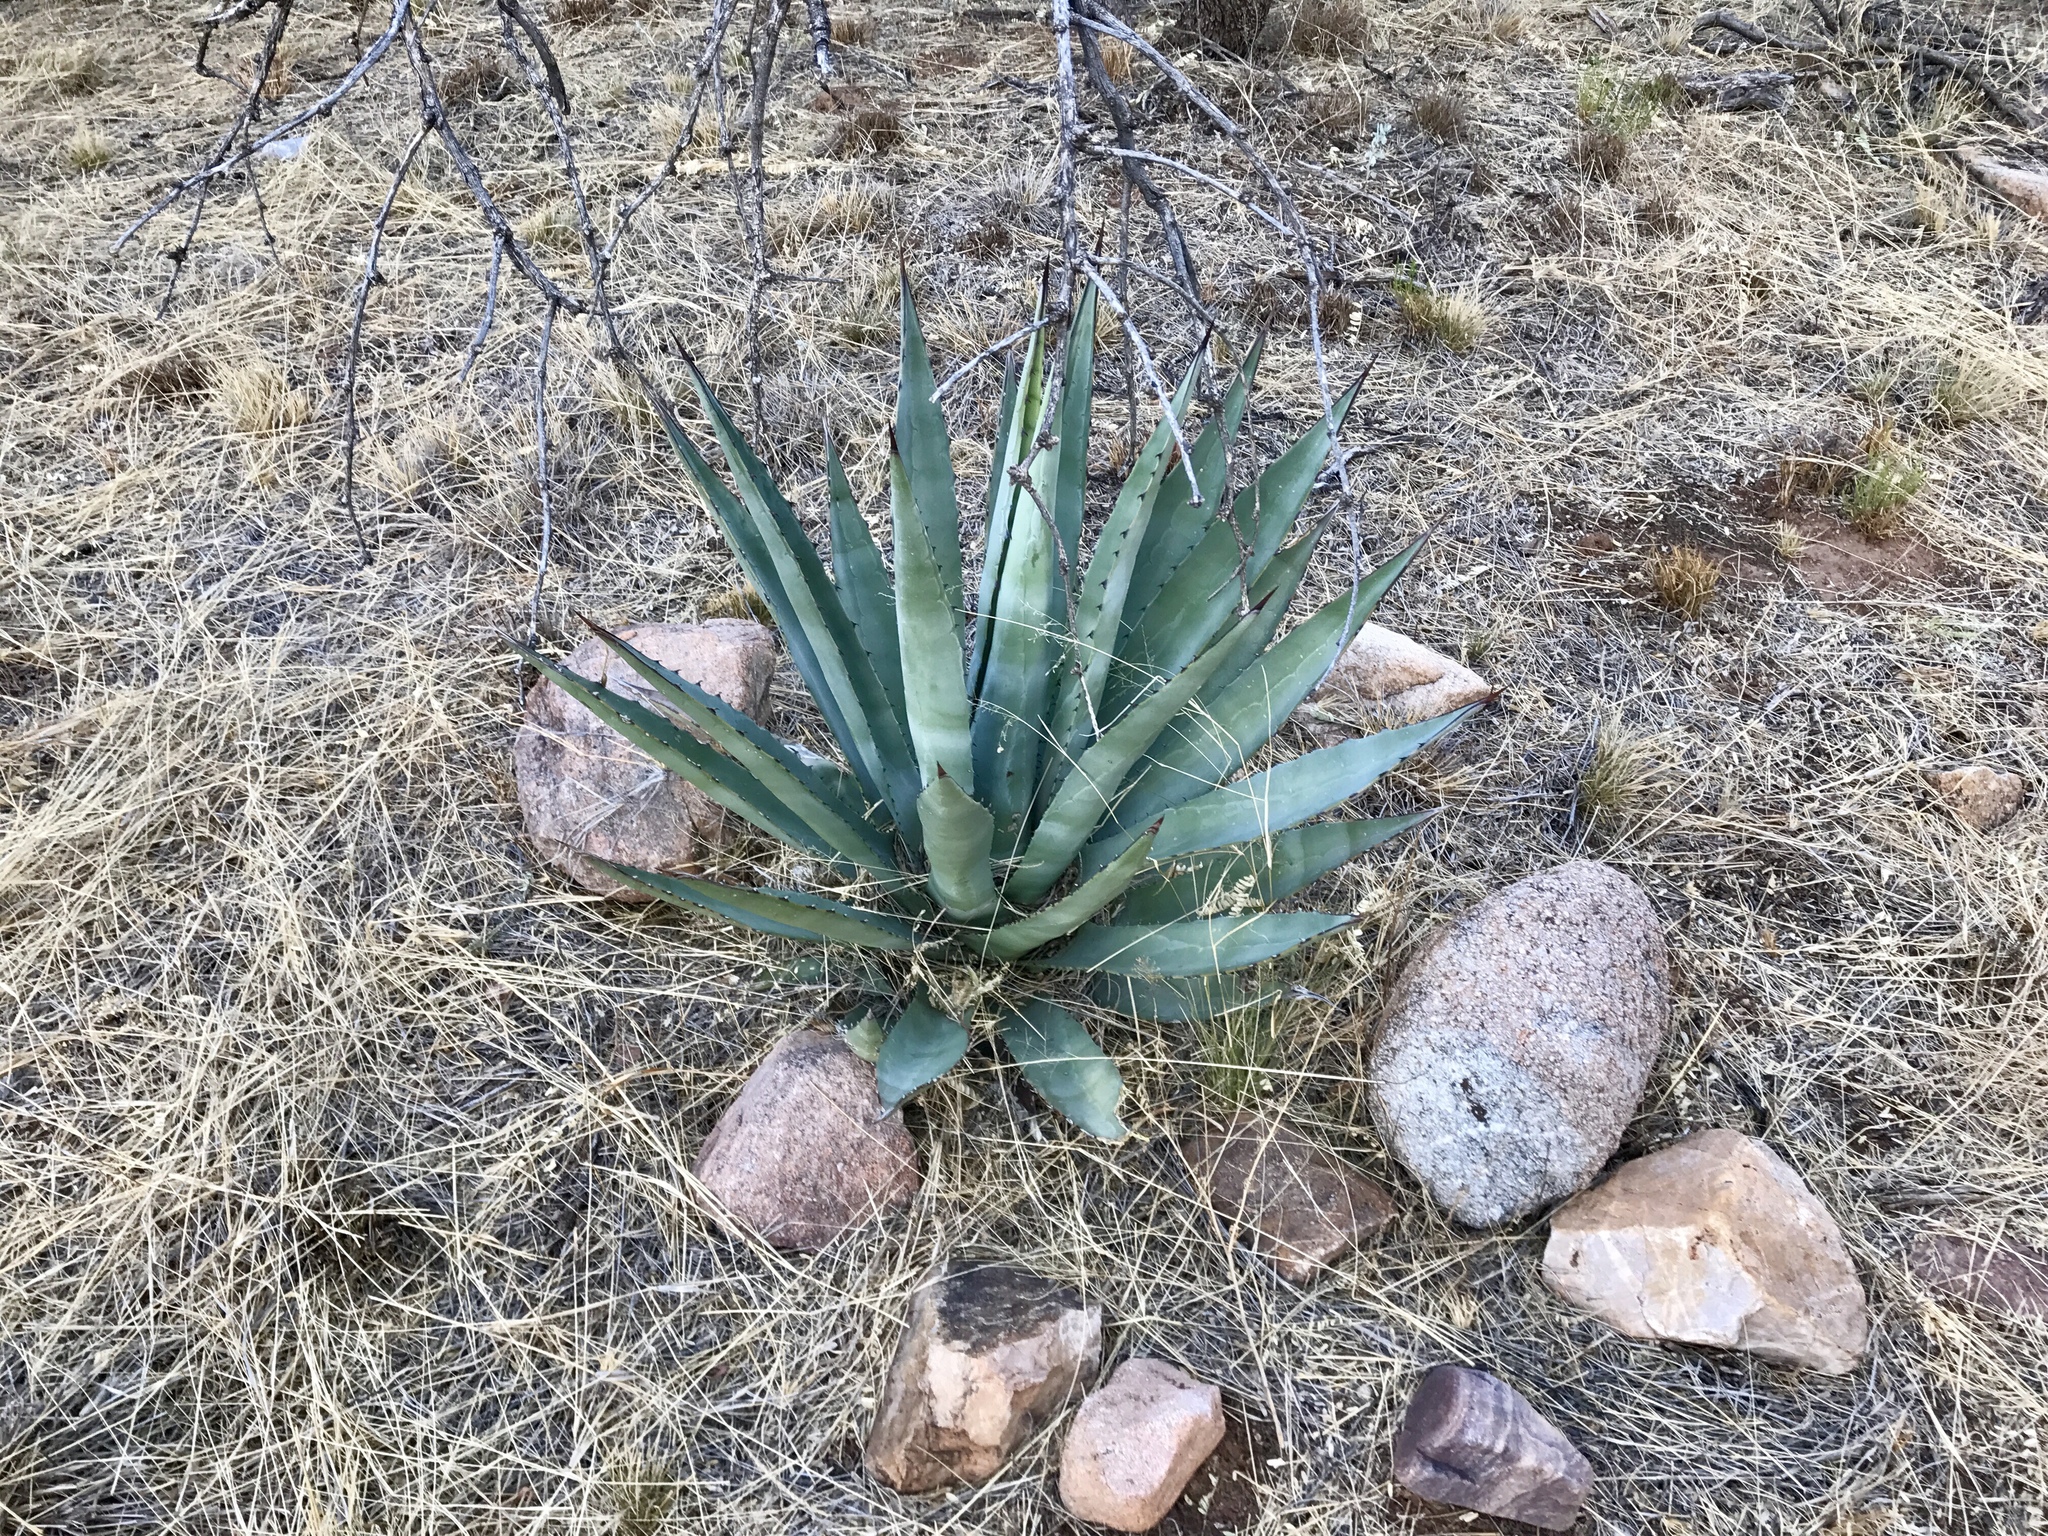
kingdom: Plantae
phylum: Tracheophyta
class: Liliopsida
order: Asparagales
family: Asparagaceae
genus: Agave
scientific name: Agave palmeri
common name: Palmer agave
